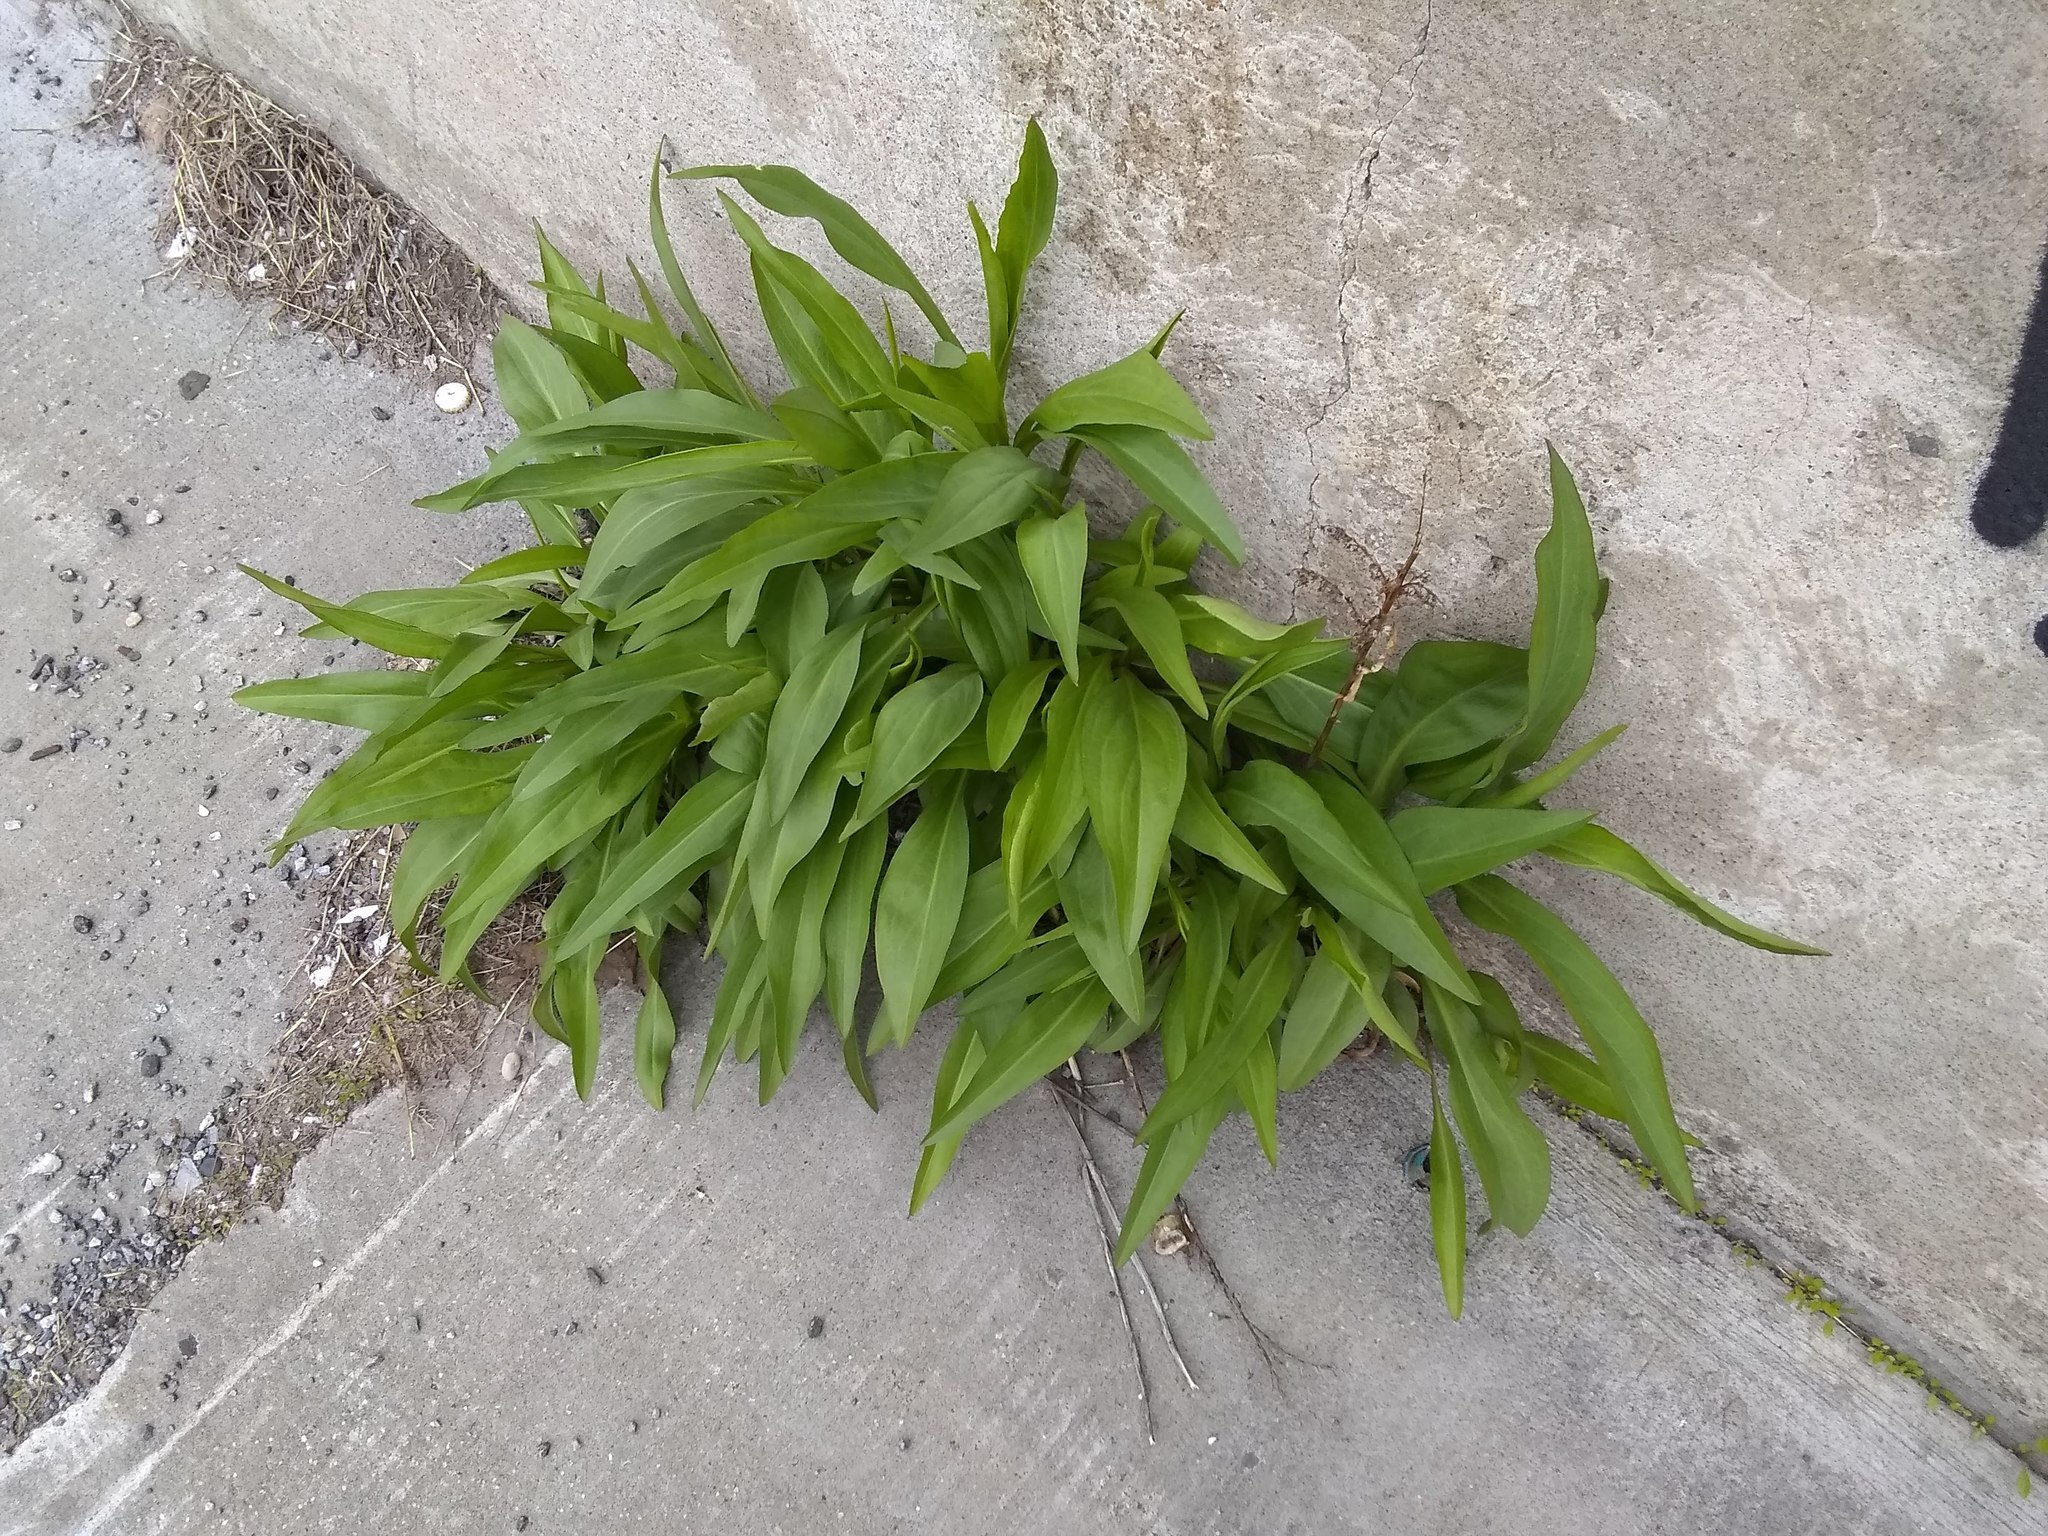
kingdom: Plantae
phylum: Tracheophyta
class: Magnoliopsida
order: Asterales
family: Asteraceae
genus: Solidago
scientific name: Solidago sempervirens
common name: Salt-marsh goldenrod
